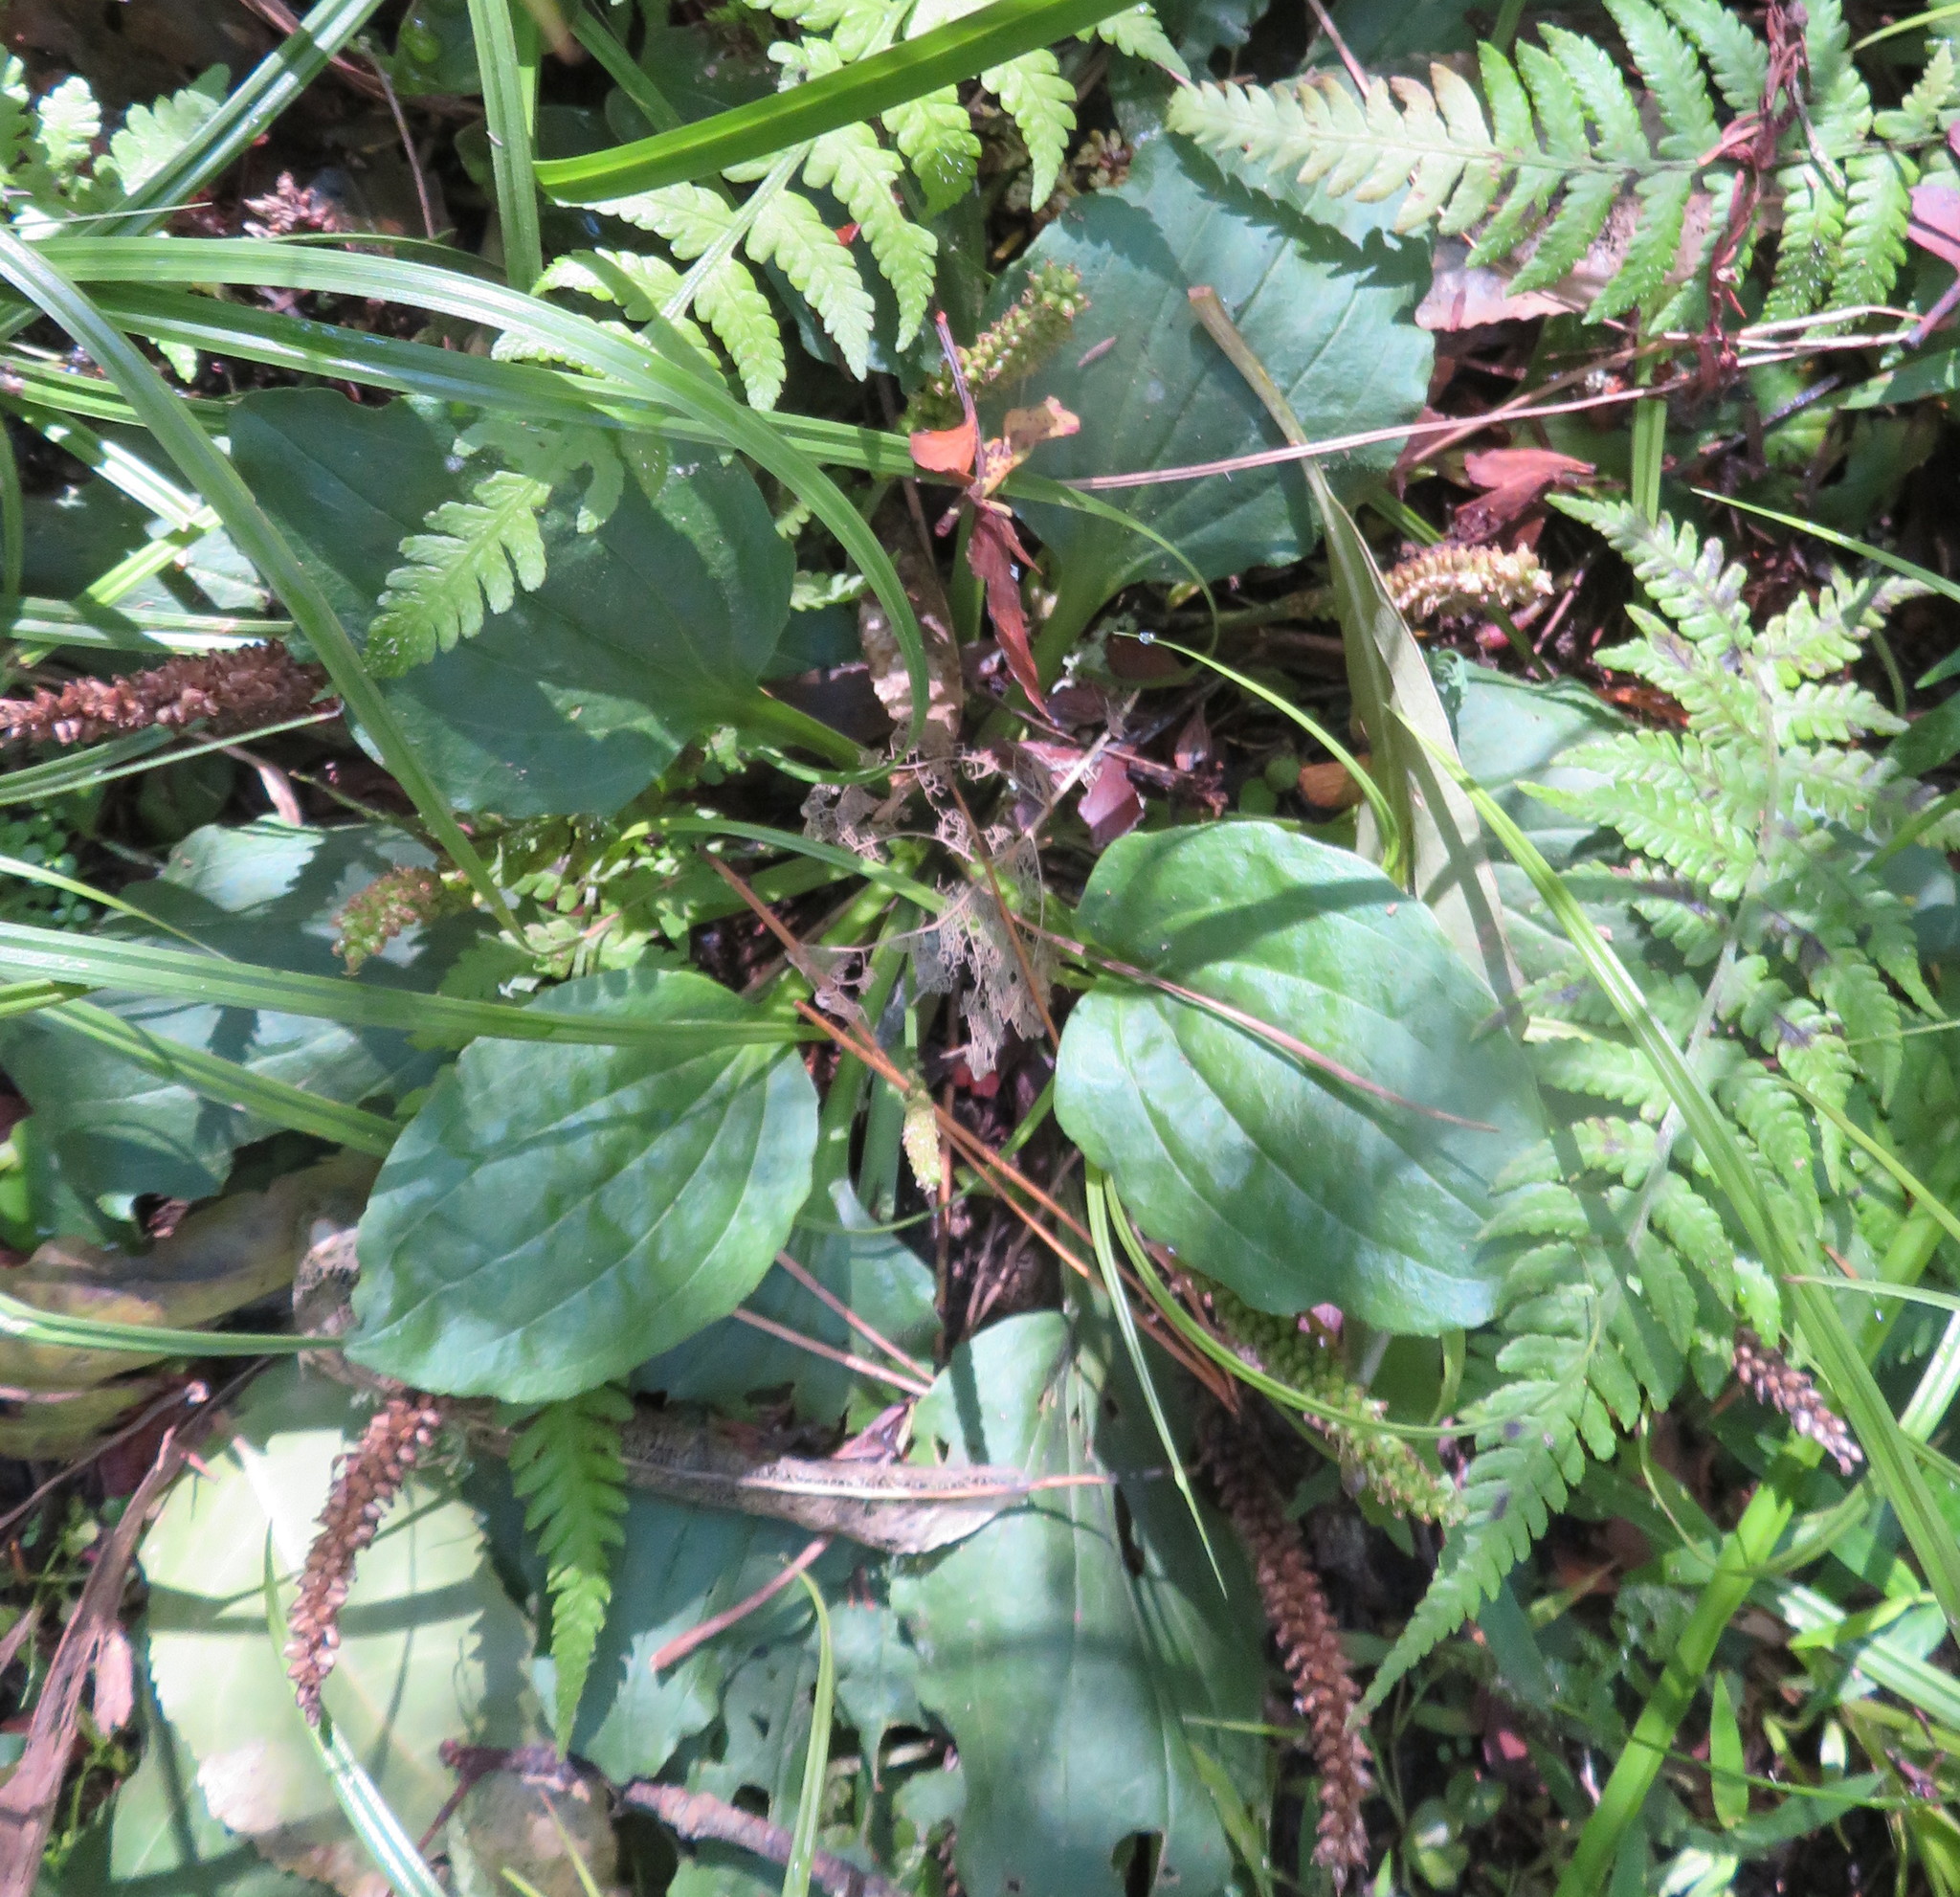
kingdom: Plantae
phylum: Tracheophyta
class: Magnoliopsida
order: Lamiales
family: Plantaginaceae
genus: Plantago
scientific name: Plantago major
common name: Common plantain
